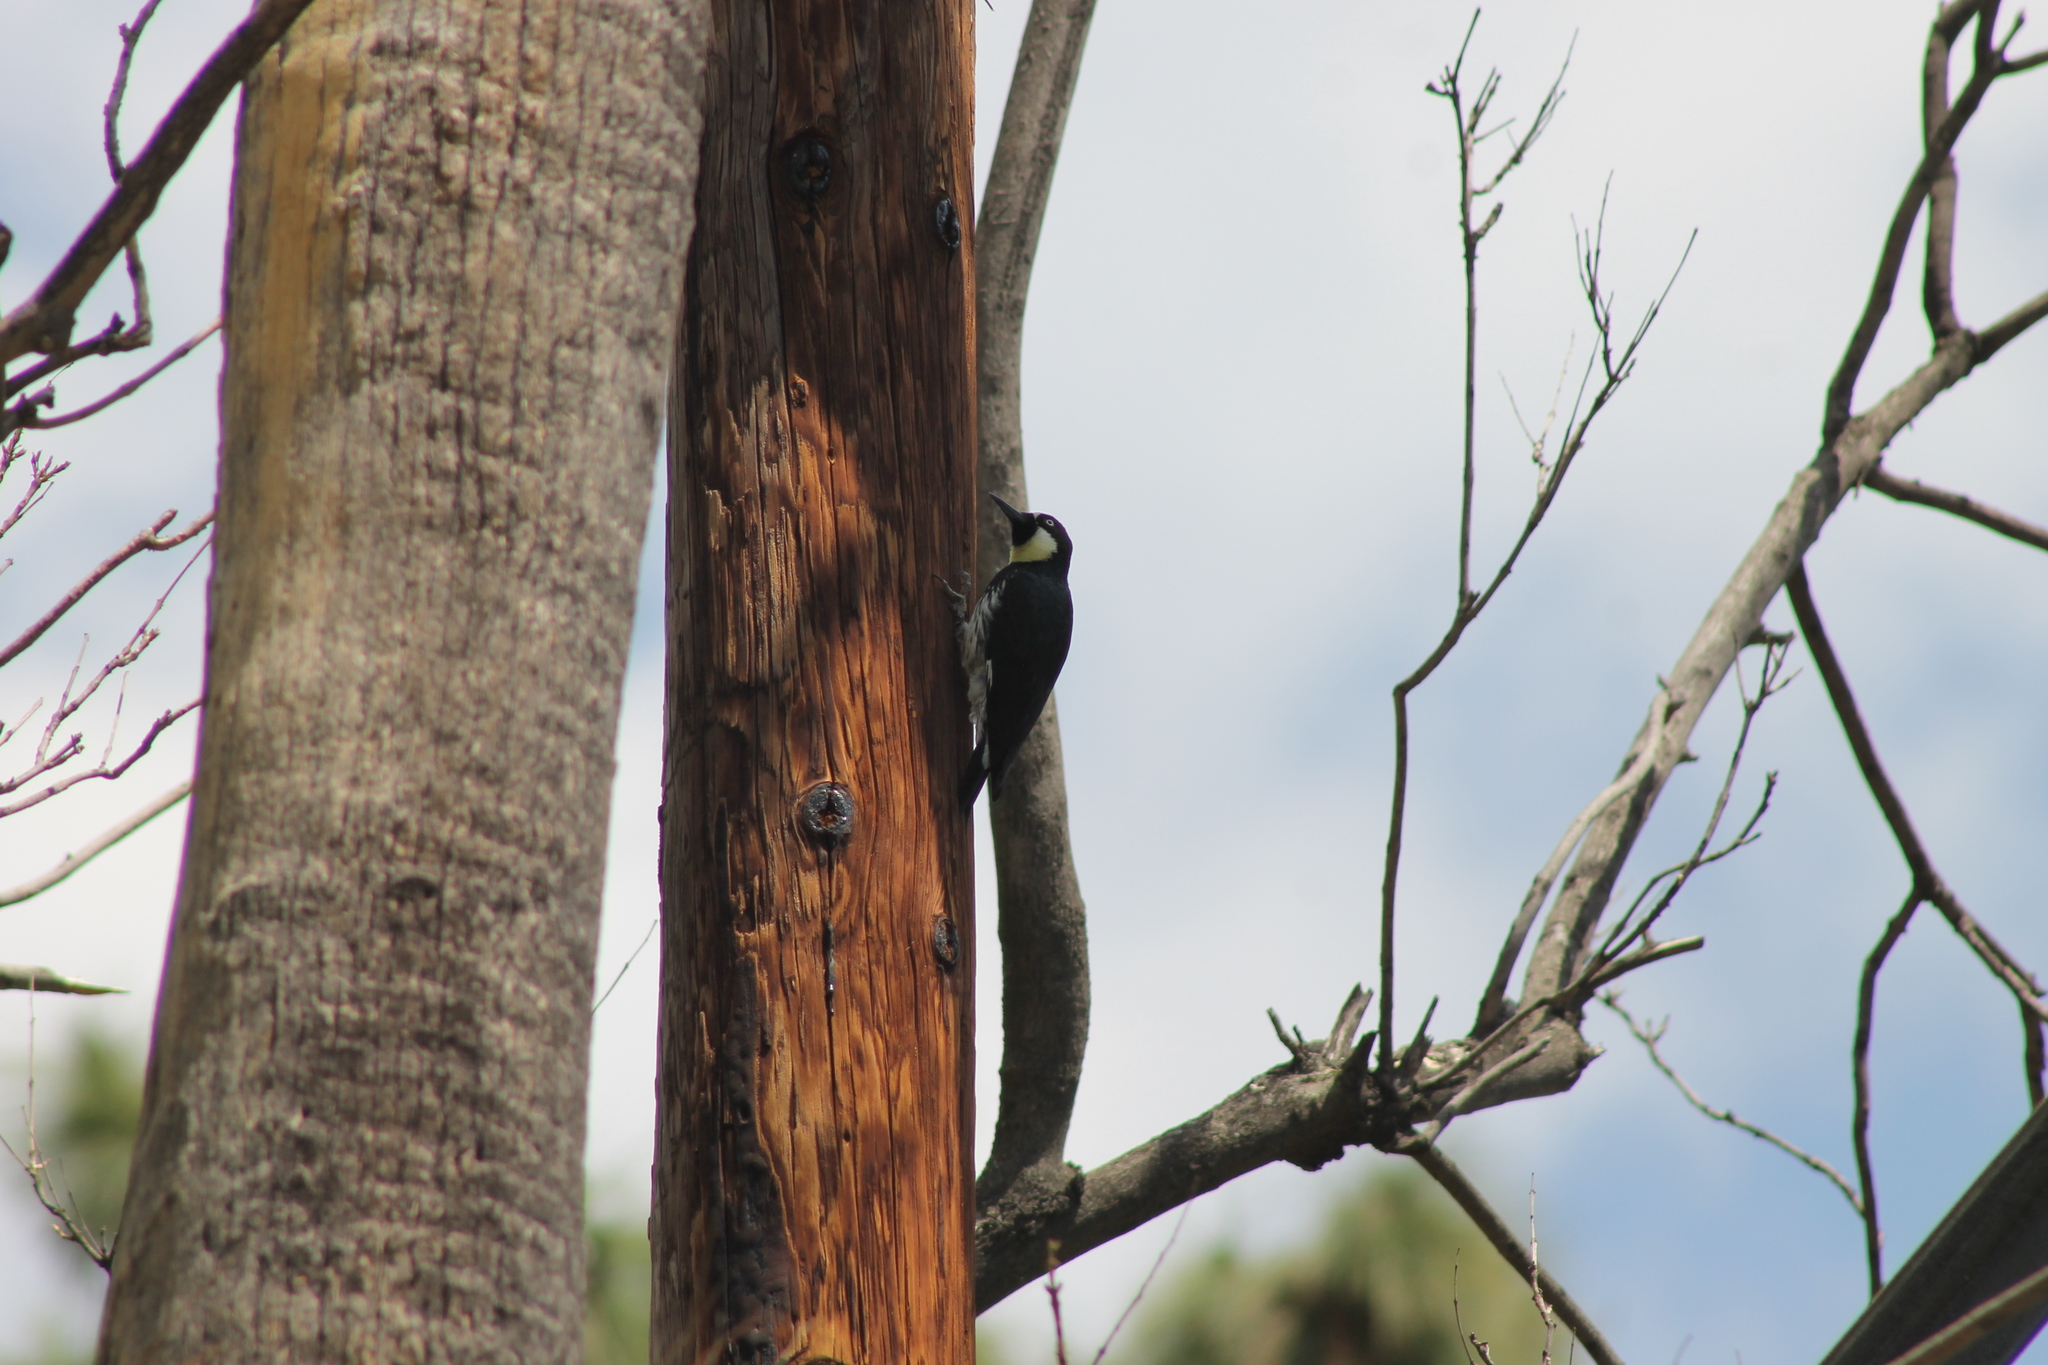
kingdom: Animalia
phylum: Chordata
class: Aves
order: Piciformes
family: Picidae
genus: Melanerpes
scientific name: Melanerpes formicivorus
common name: Acorn woodpecker
